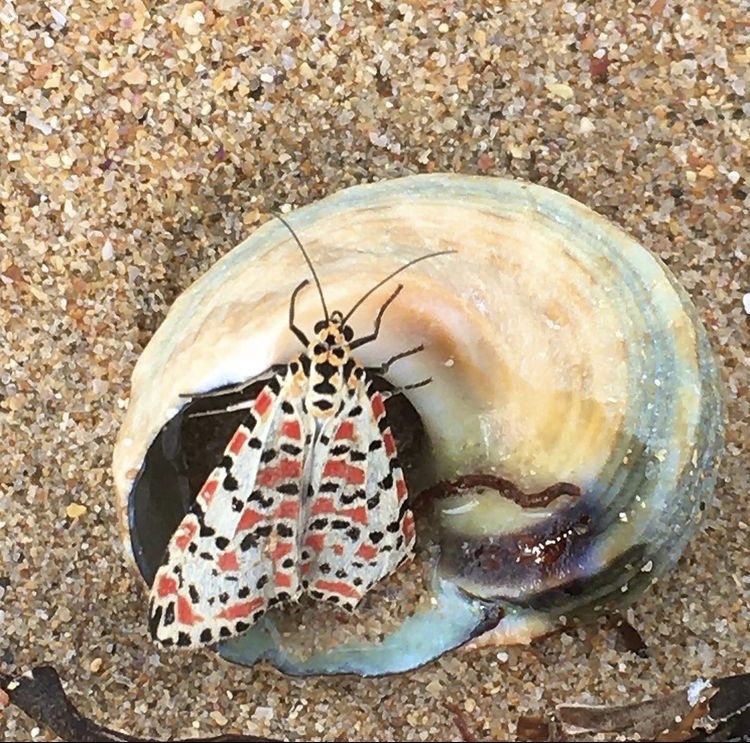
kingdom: Animalia
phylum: Arthropoda
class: Insecta
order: Lepidoptera
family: Erebidae
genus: Utetheisa
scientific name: Utetheisa pulchella
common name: Crimson speckled
